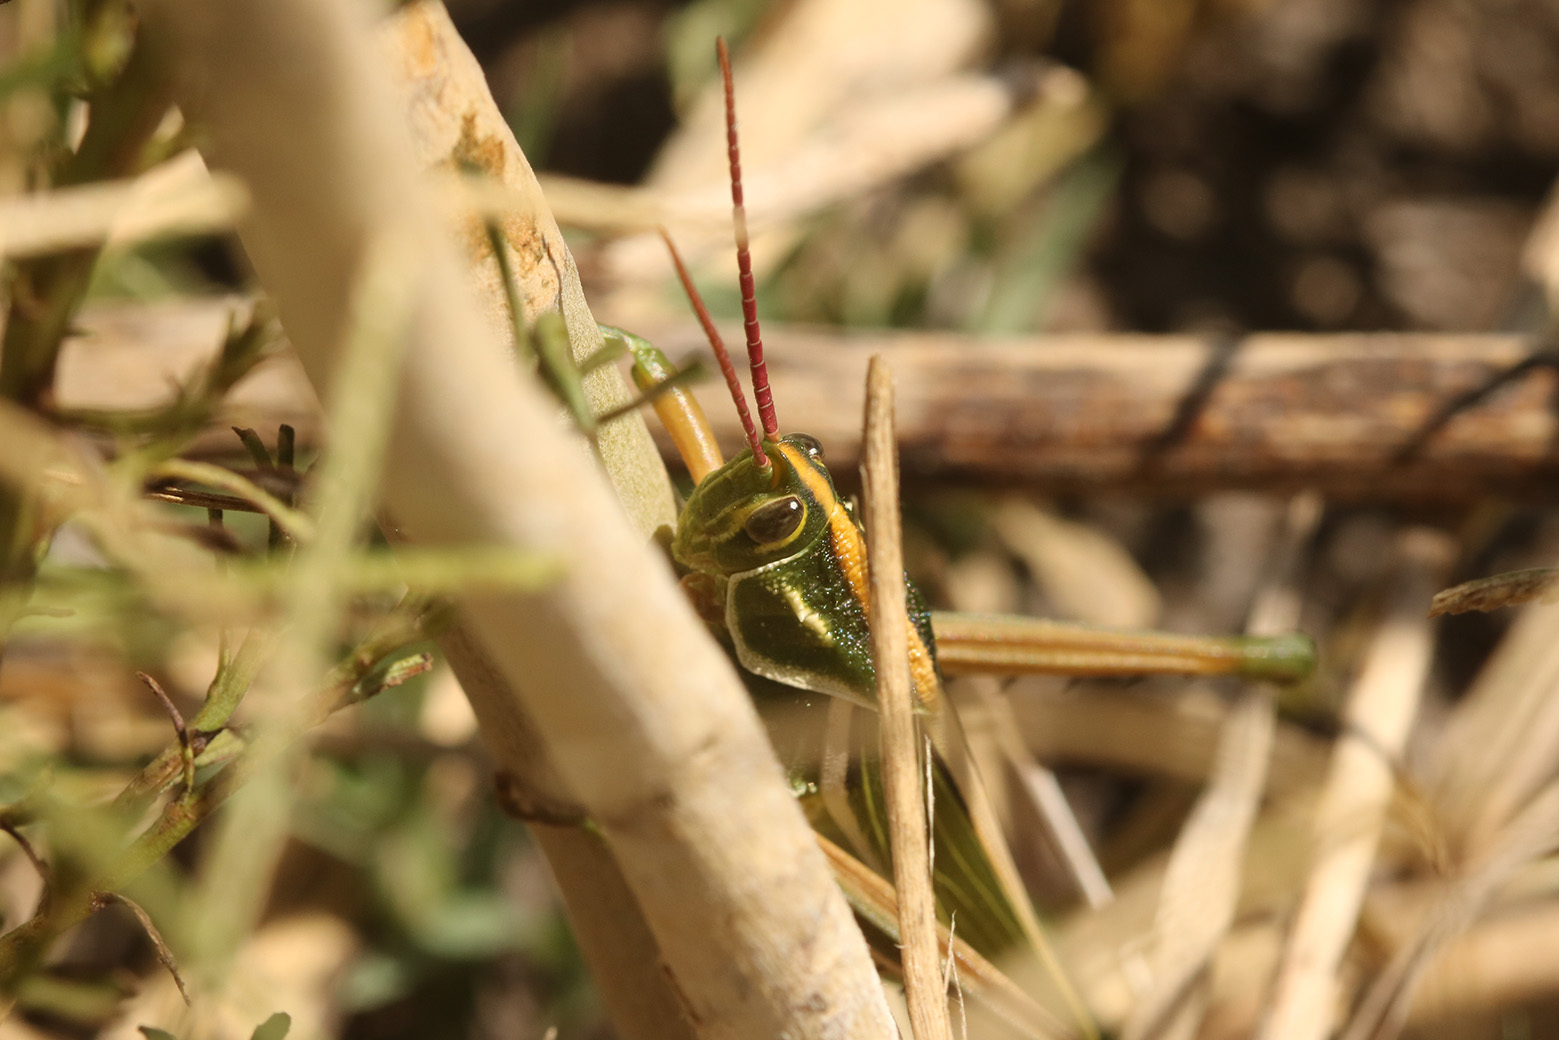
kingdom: Animalia
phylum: Arthropoda
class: Insecta
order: Orthoptera
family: Romaleidae
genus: Staleochlora
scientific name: Staleochlora viridicata
